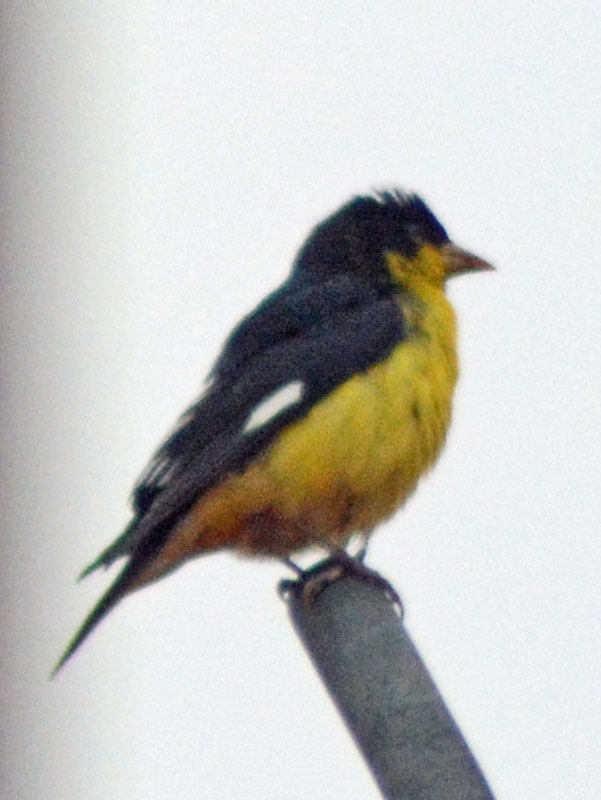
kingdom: Animalia
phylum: Chordata
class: Aves
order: Passeriformes
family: Fringillidae
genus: Spinus
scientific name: Spinus psaltria
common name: Lesser goldfinch
